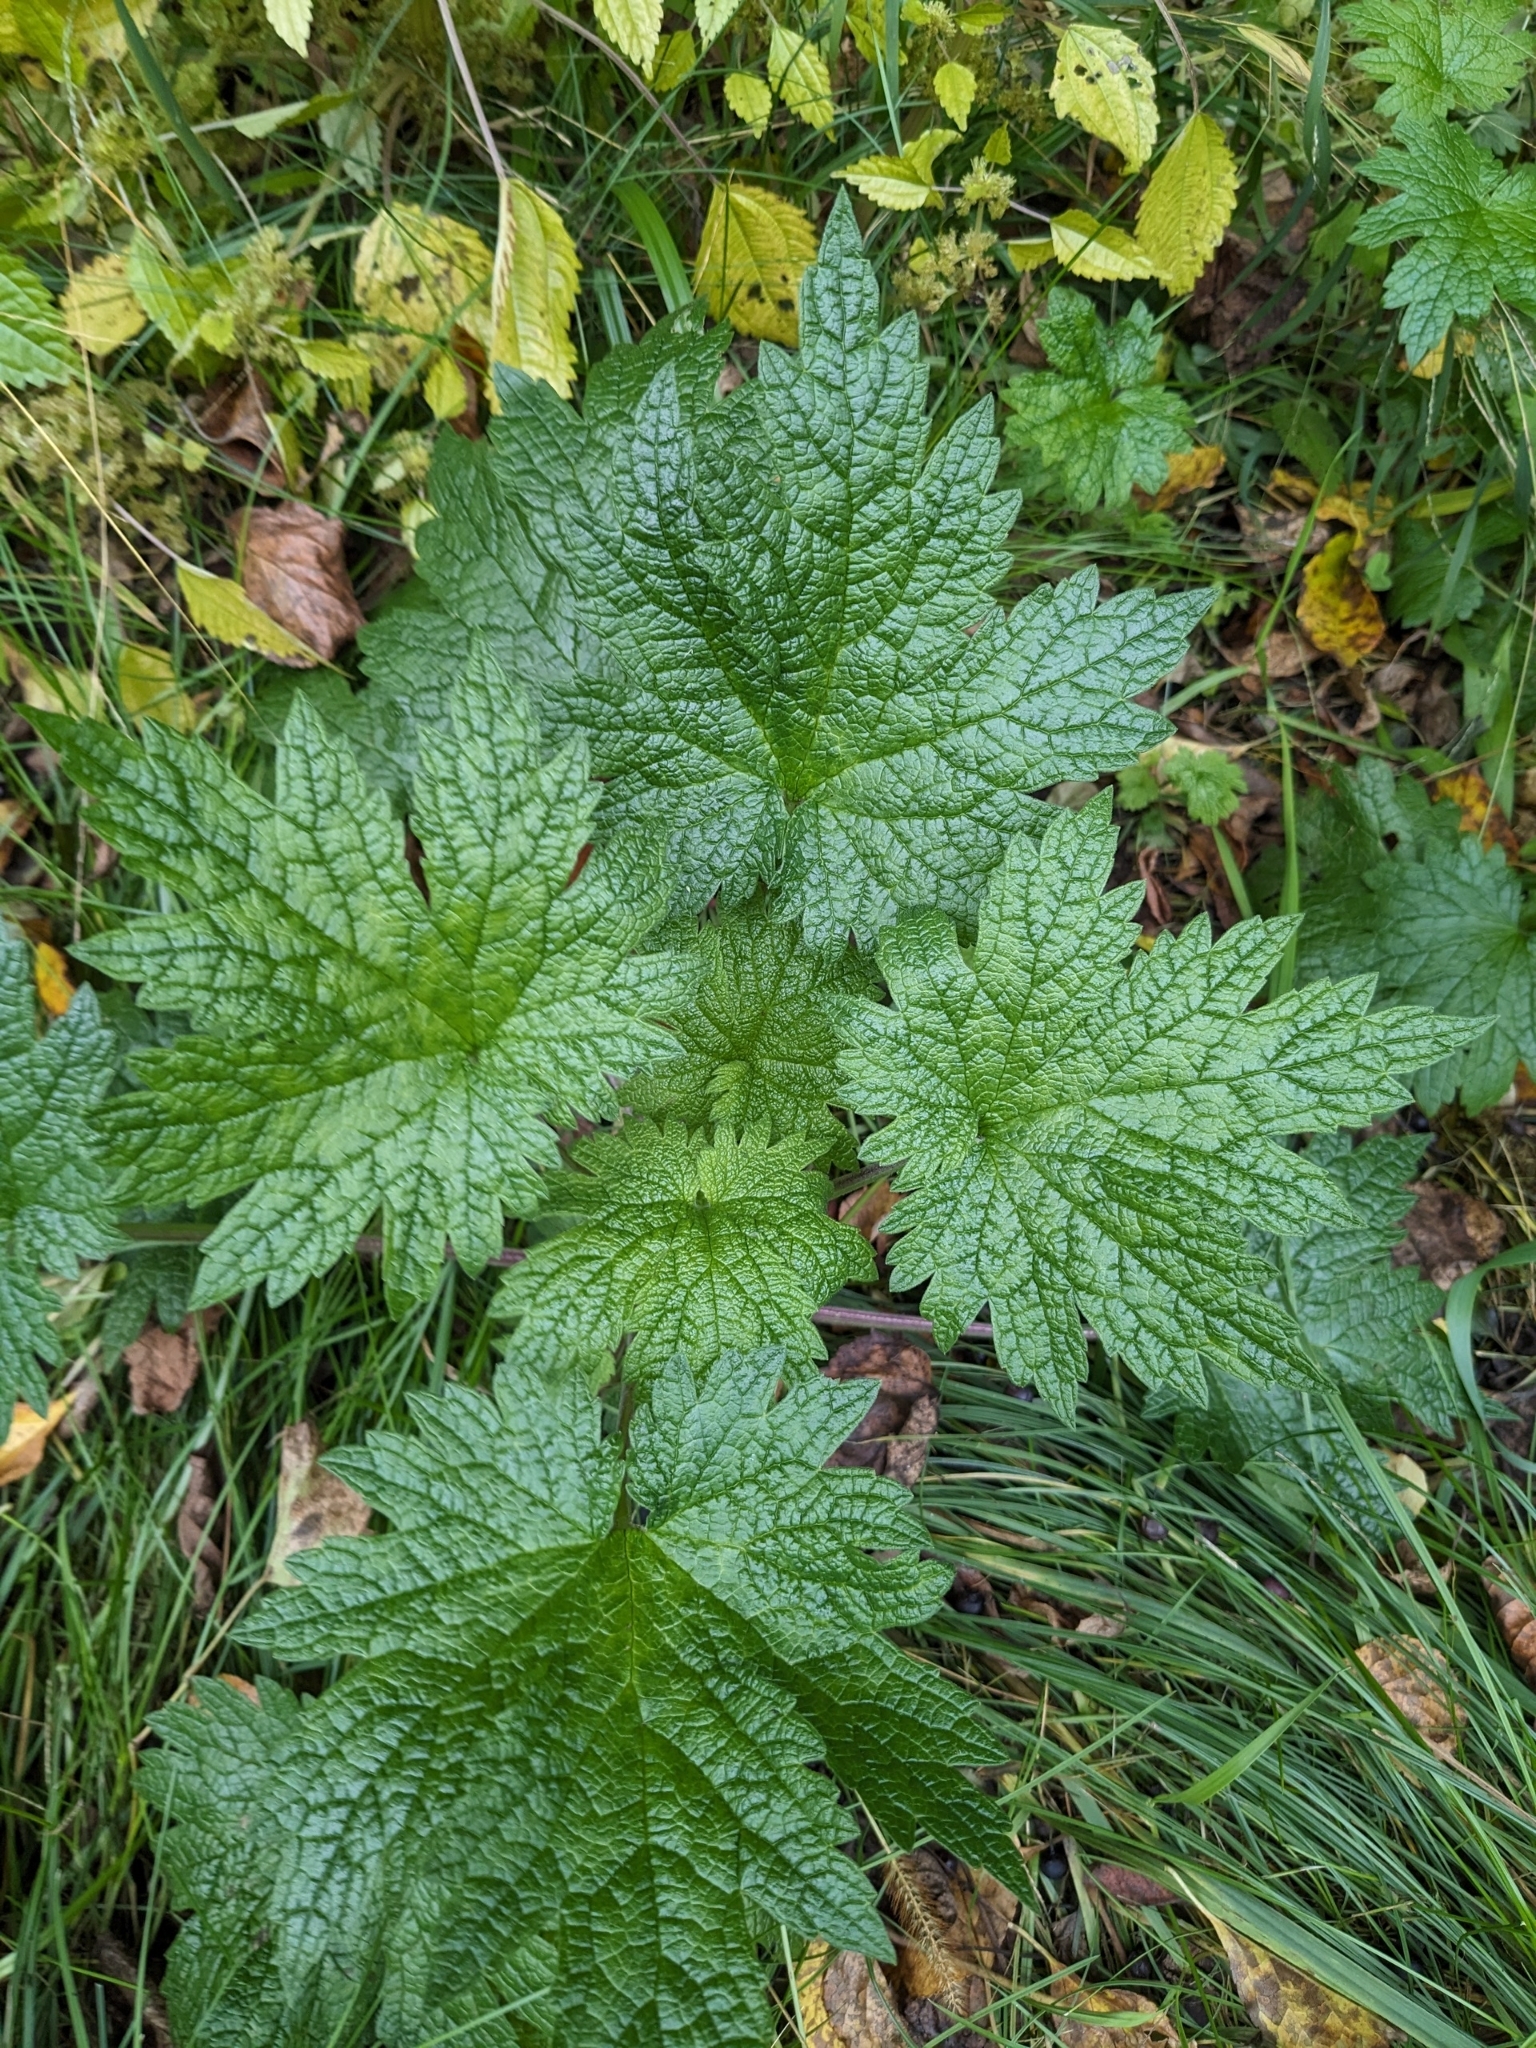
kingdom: Plantae
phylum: Tracheophyta
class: Magnoliopsida
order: Lamiales
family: Lamiaceae
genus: Leonurus
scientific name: Leonurus cardiaca
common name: Motherwort
